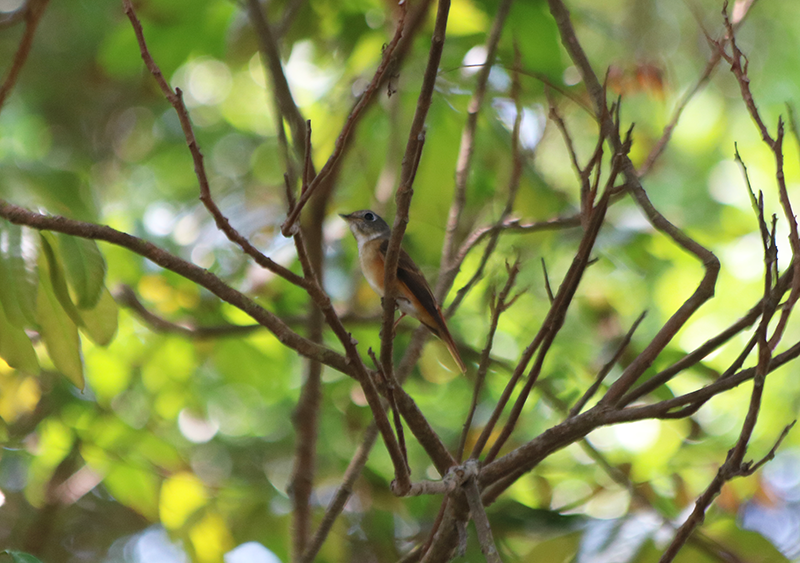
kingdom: Animalia
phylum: Chordata
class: Aves
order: Passeriformes
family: Muscicapidae
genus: Muscicapa
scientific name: Muscicapa ferruginea
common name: Ferruginous flycatcher
